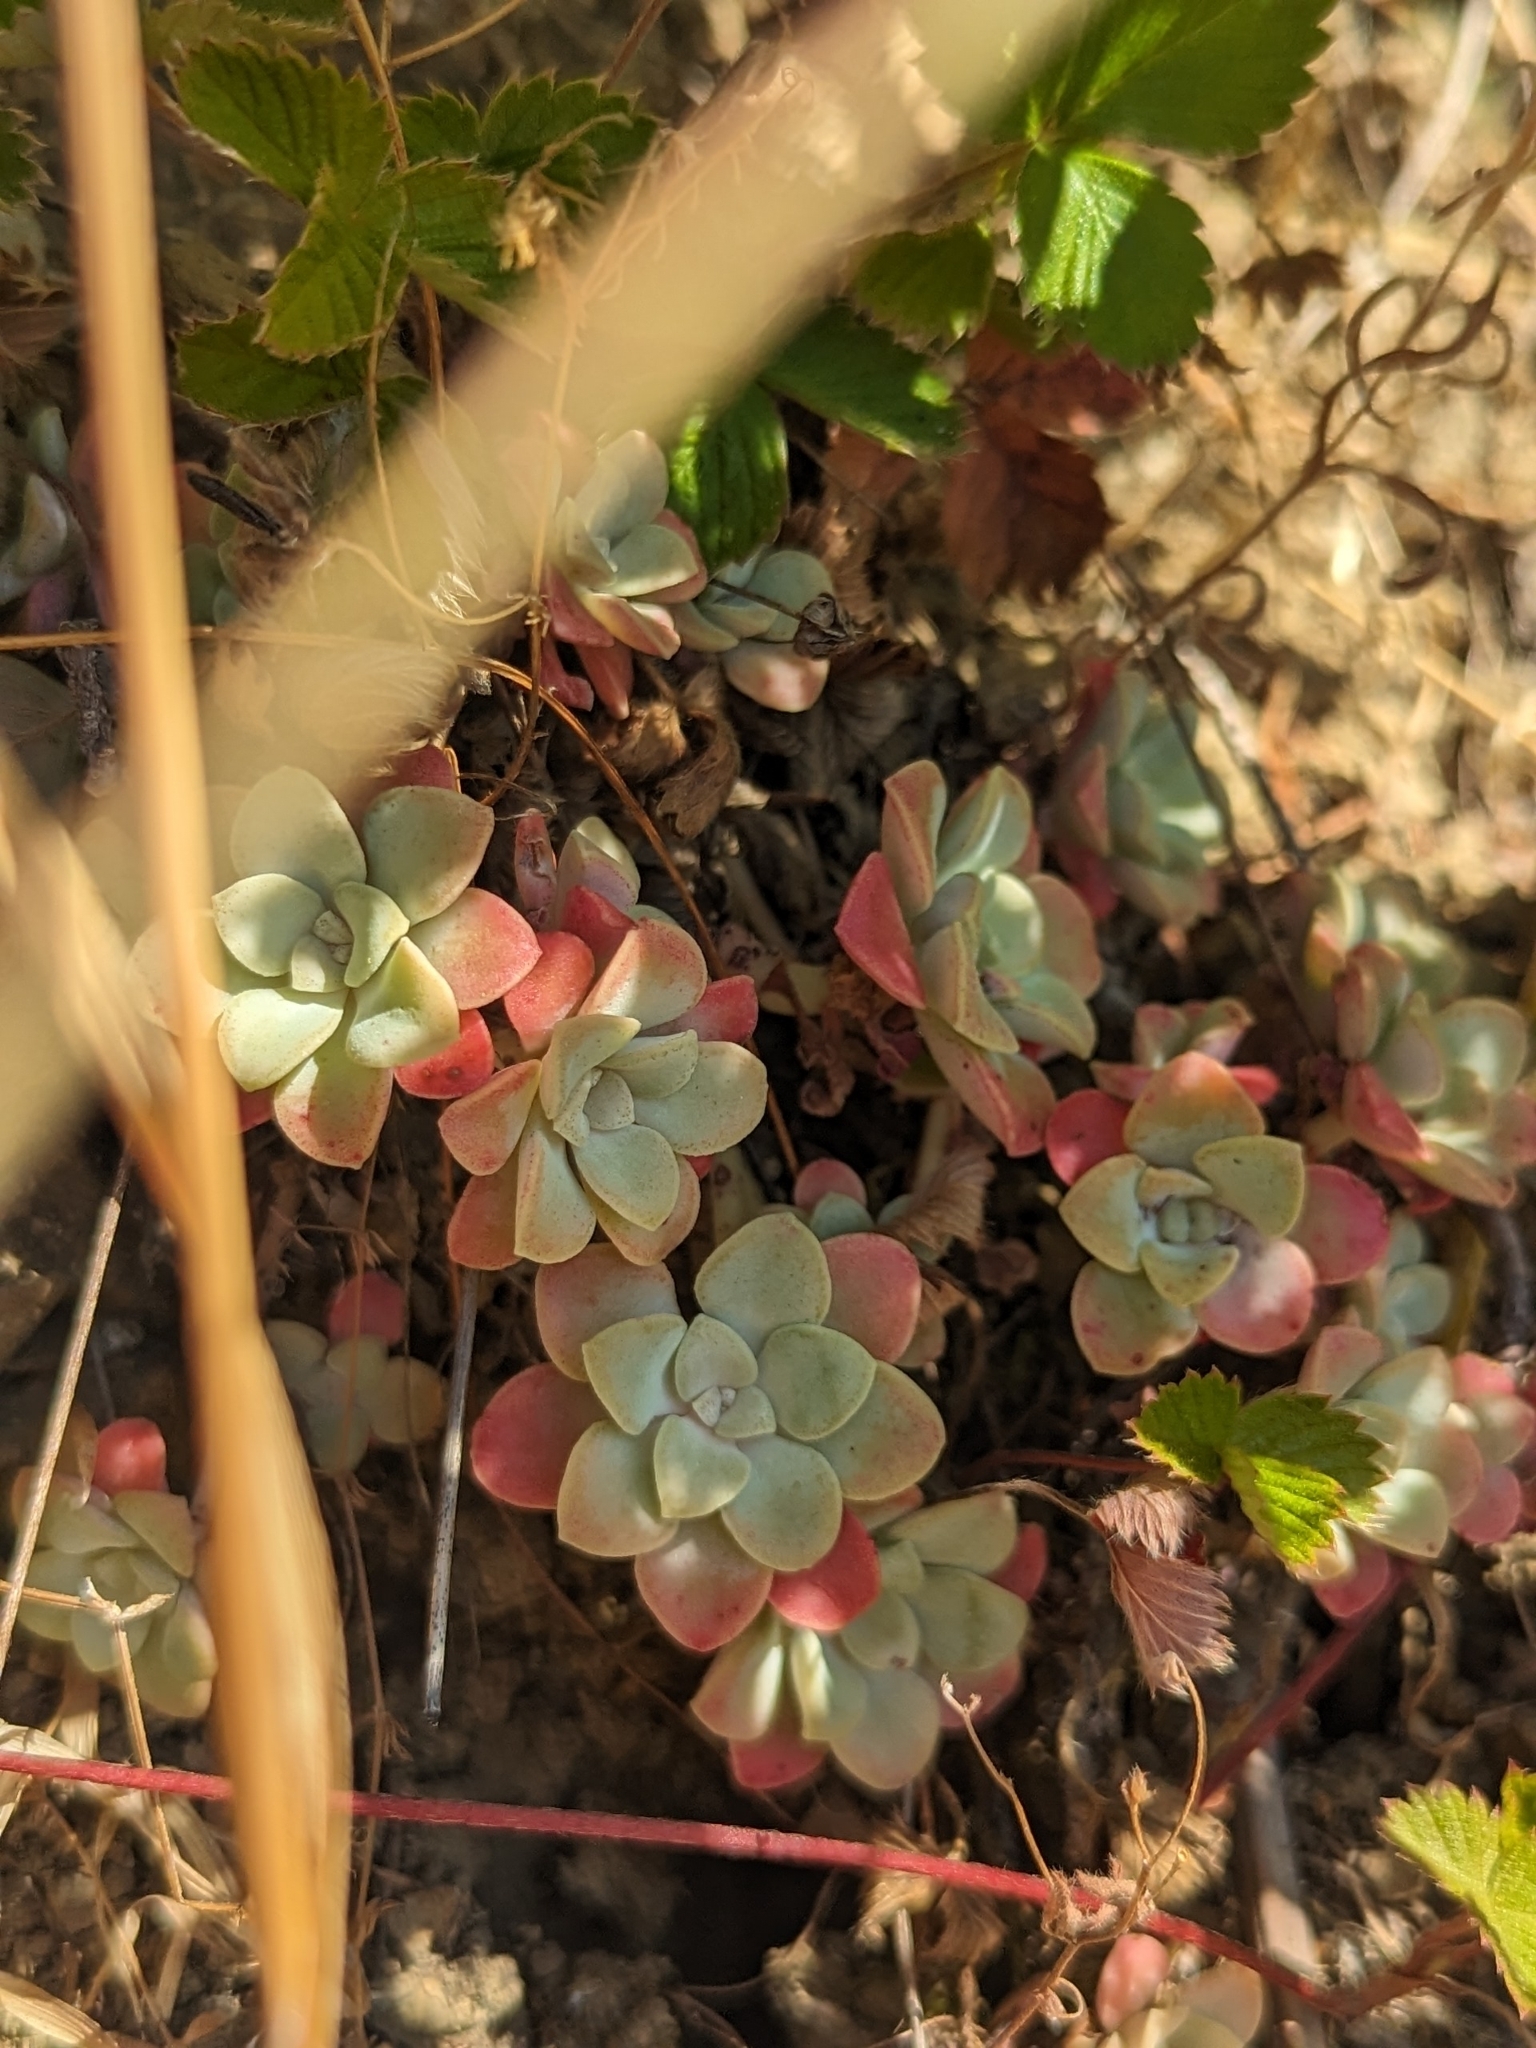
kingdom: Plantae
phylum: Tracheophyta
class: Magnoliopsida
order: Saxifragales
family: Crassulaceae
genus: Sedum
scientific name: Sedum spathulifolium
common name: Colorado stonecrop
